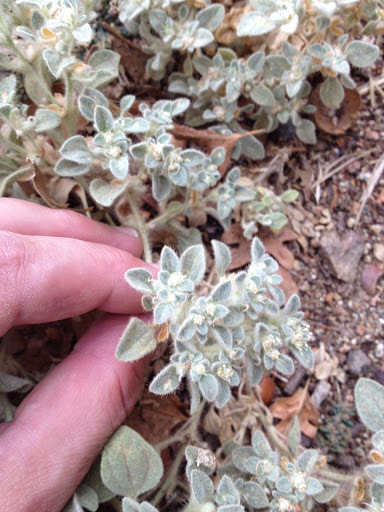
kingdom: Plantae
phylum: Tracheophyta
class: Magnoliopsida
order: Malpighiales
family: Euphorbiaceae
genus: Croton
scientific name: Croton setiger
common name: Dove weed
